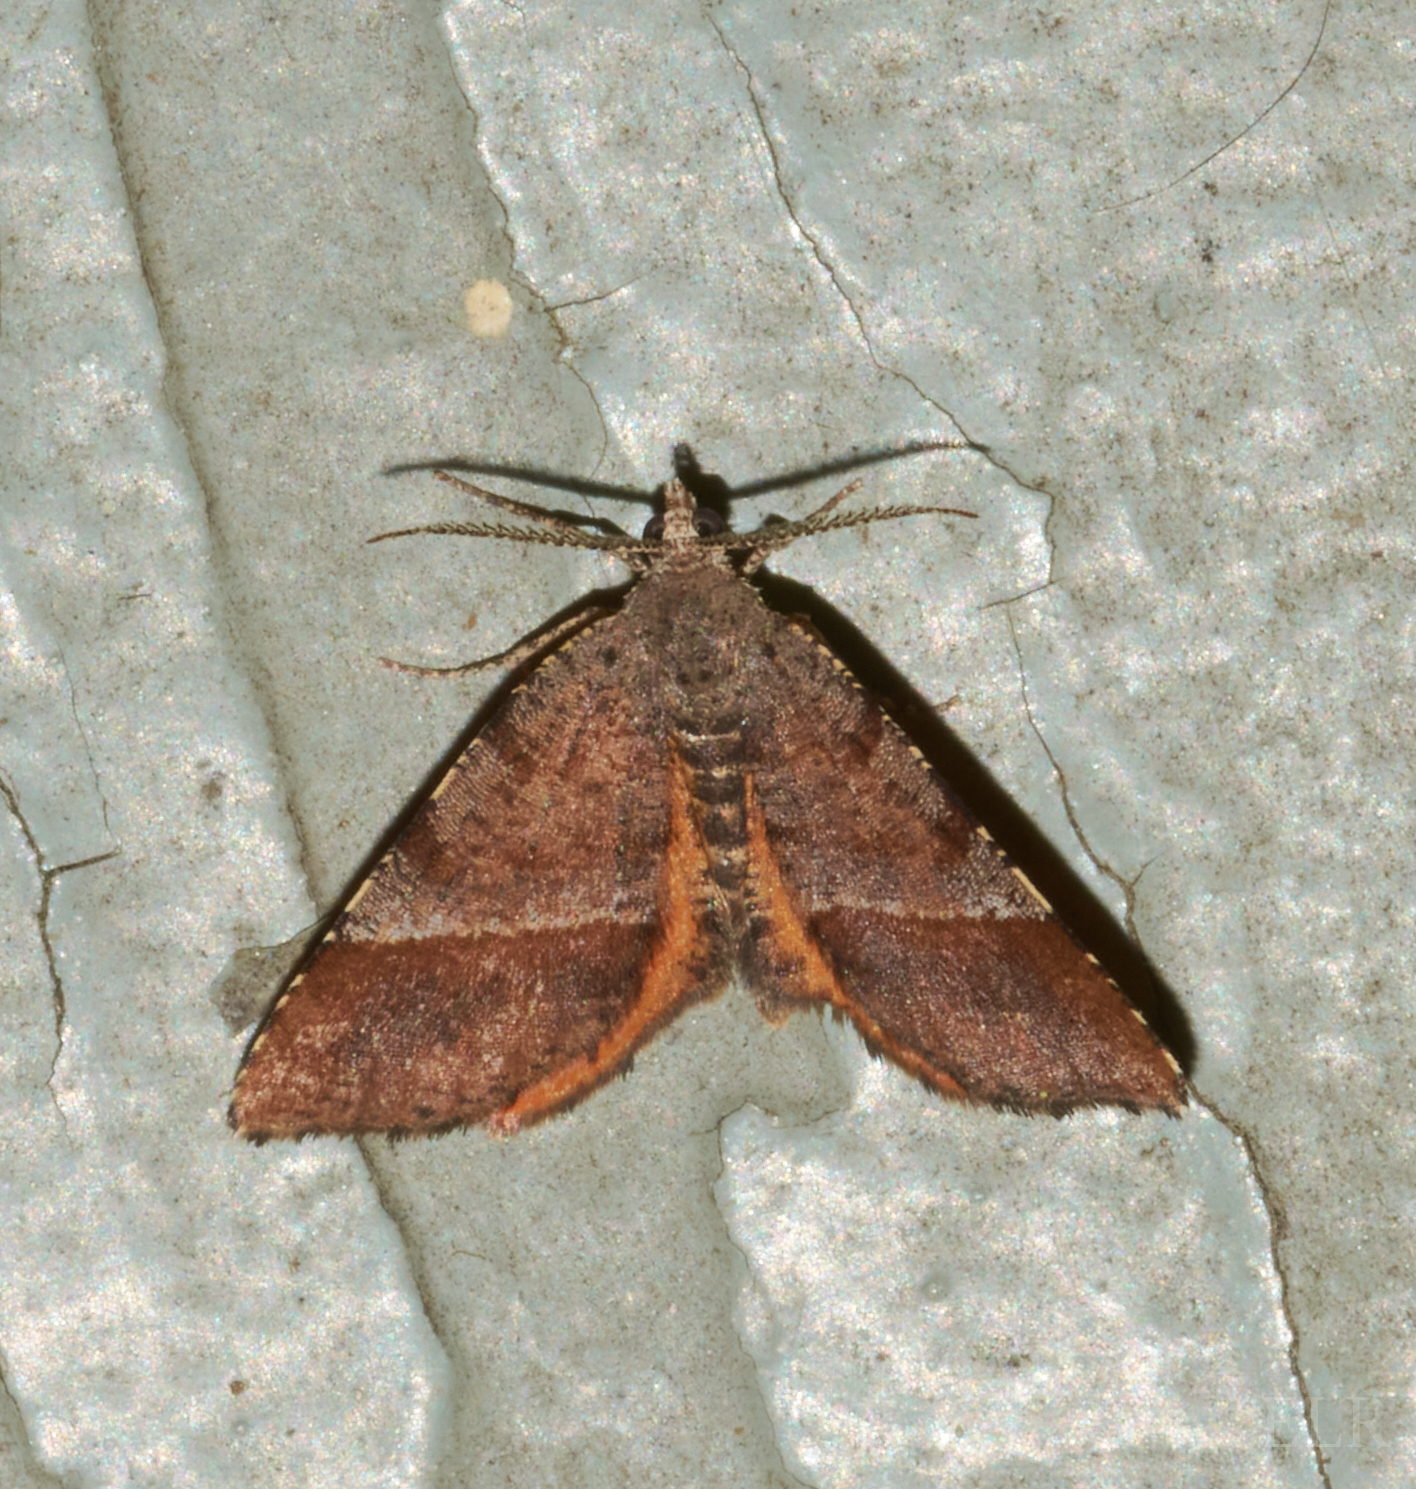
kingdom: Animalia
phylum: Arthropoda
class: Insecta
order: Lepidoptera
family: Geometridae
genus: Mellilla
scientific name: Mellilla xanthometata
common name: Orange wing moth
